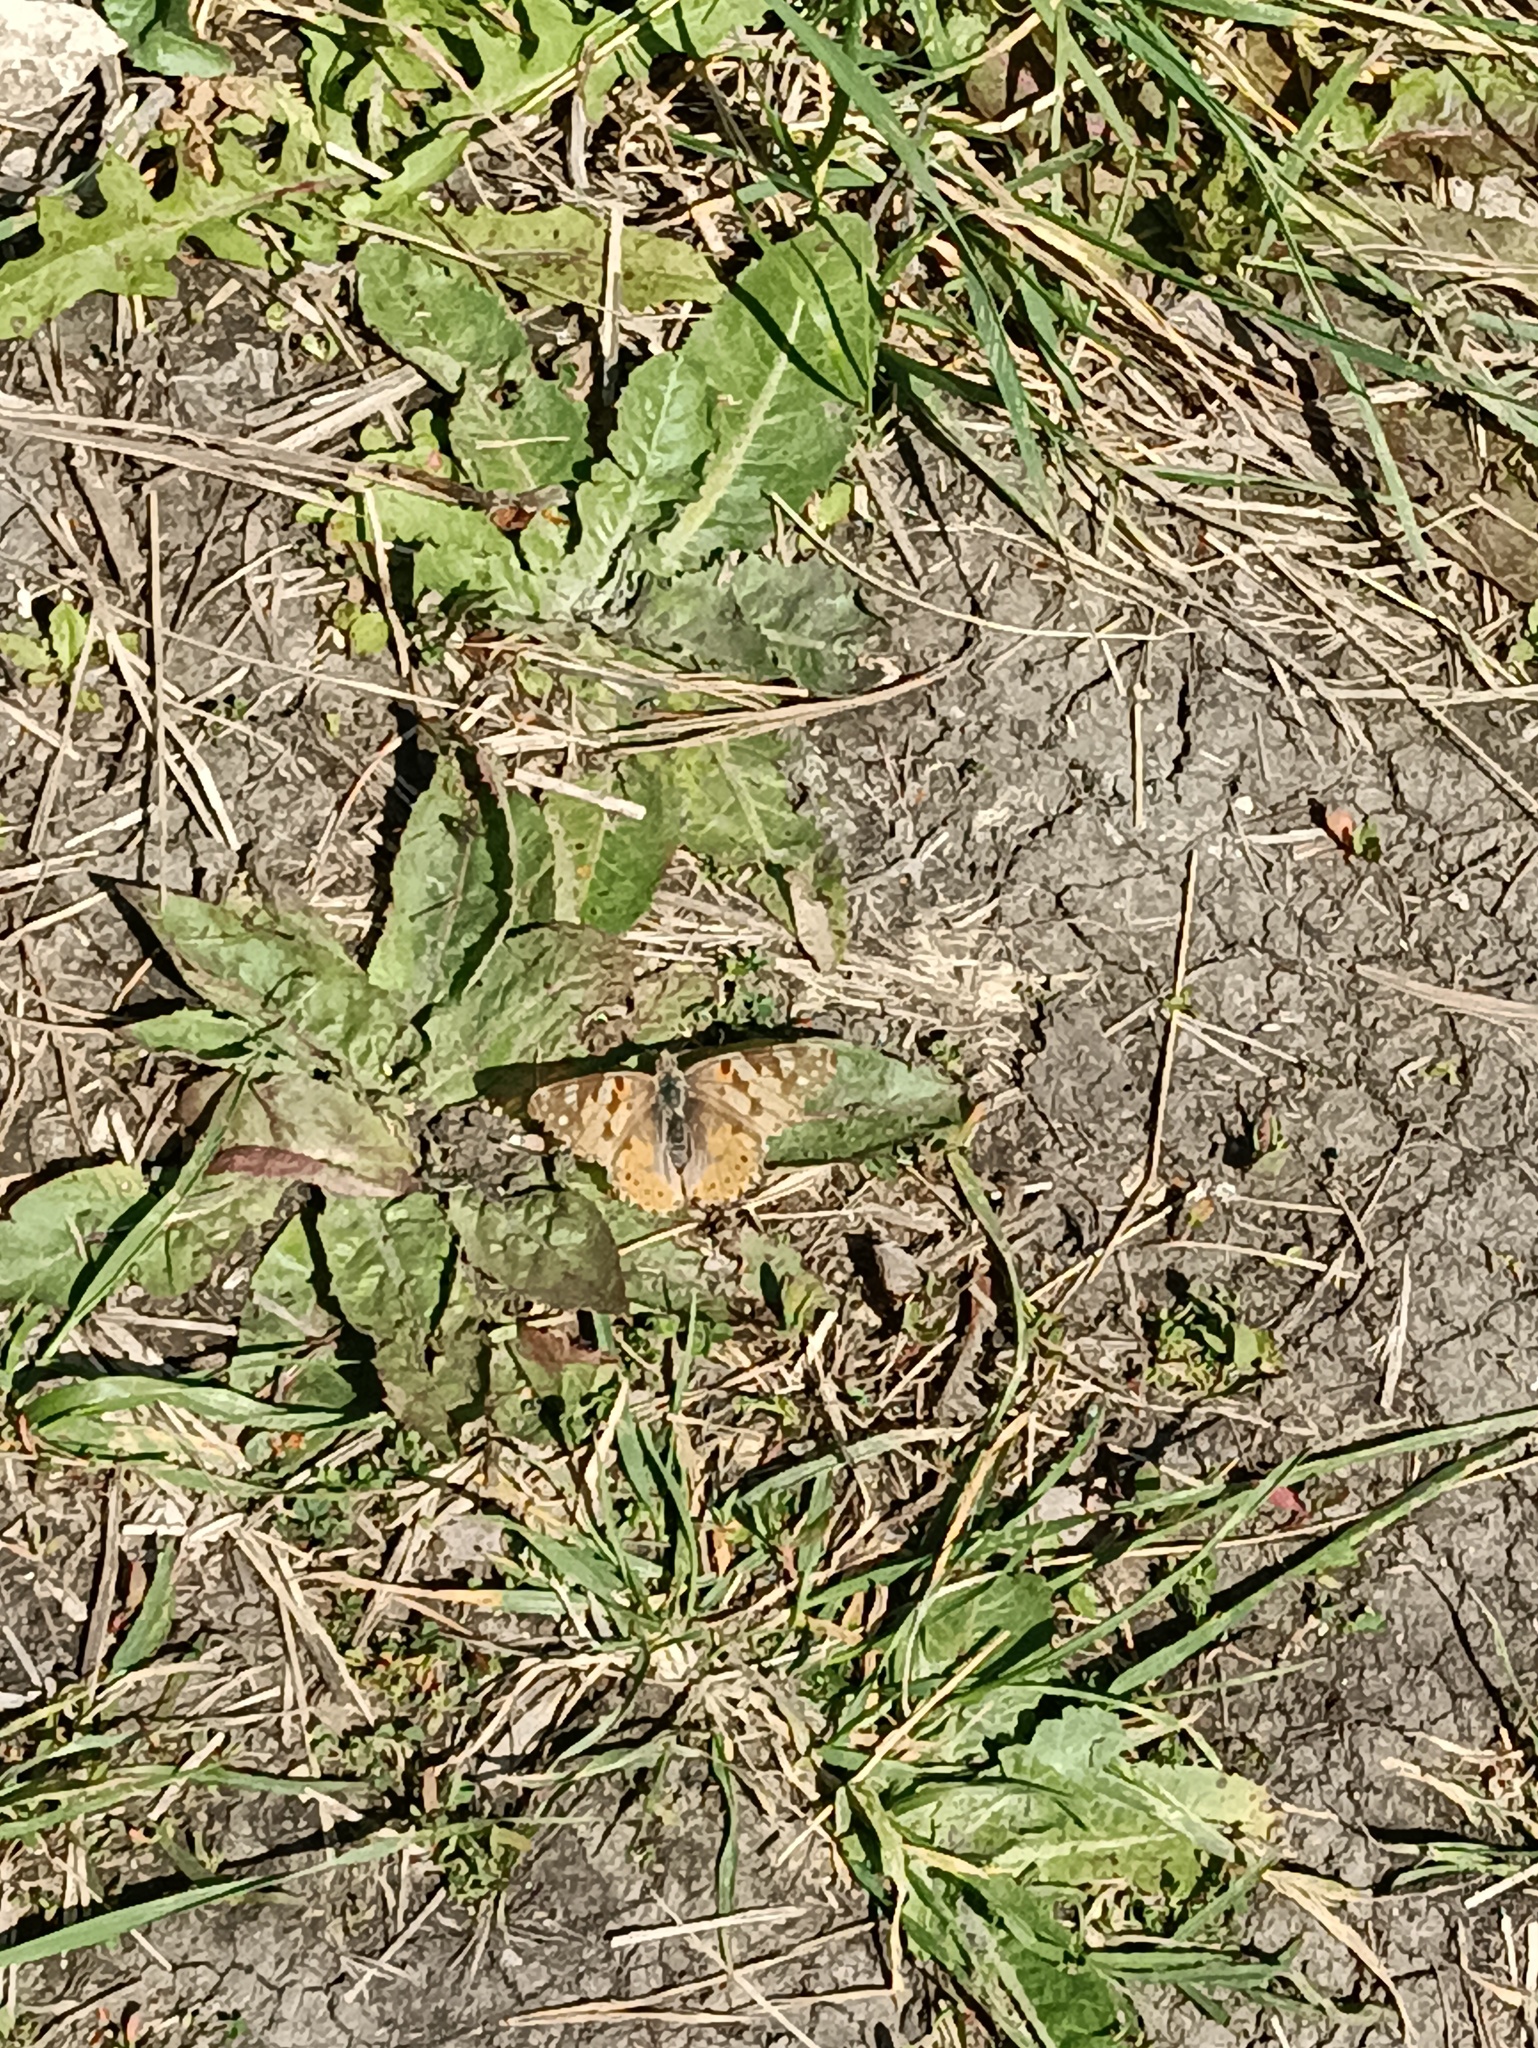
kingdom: Animalia
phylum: Arthropoda
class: Insecta
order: Lepidoptera
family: Nymphalidae
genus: Vanessa
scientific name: Vanessa cardui
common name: Painted lady
